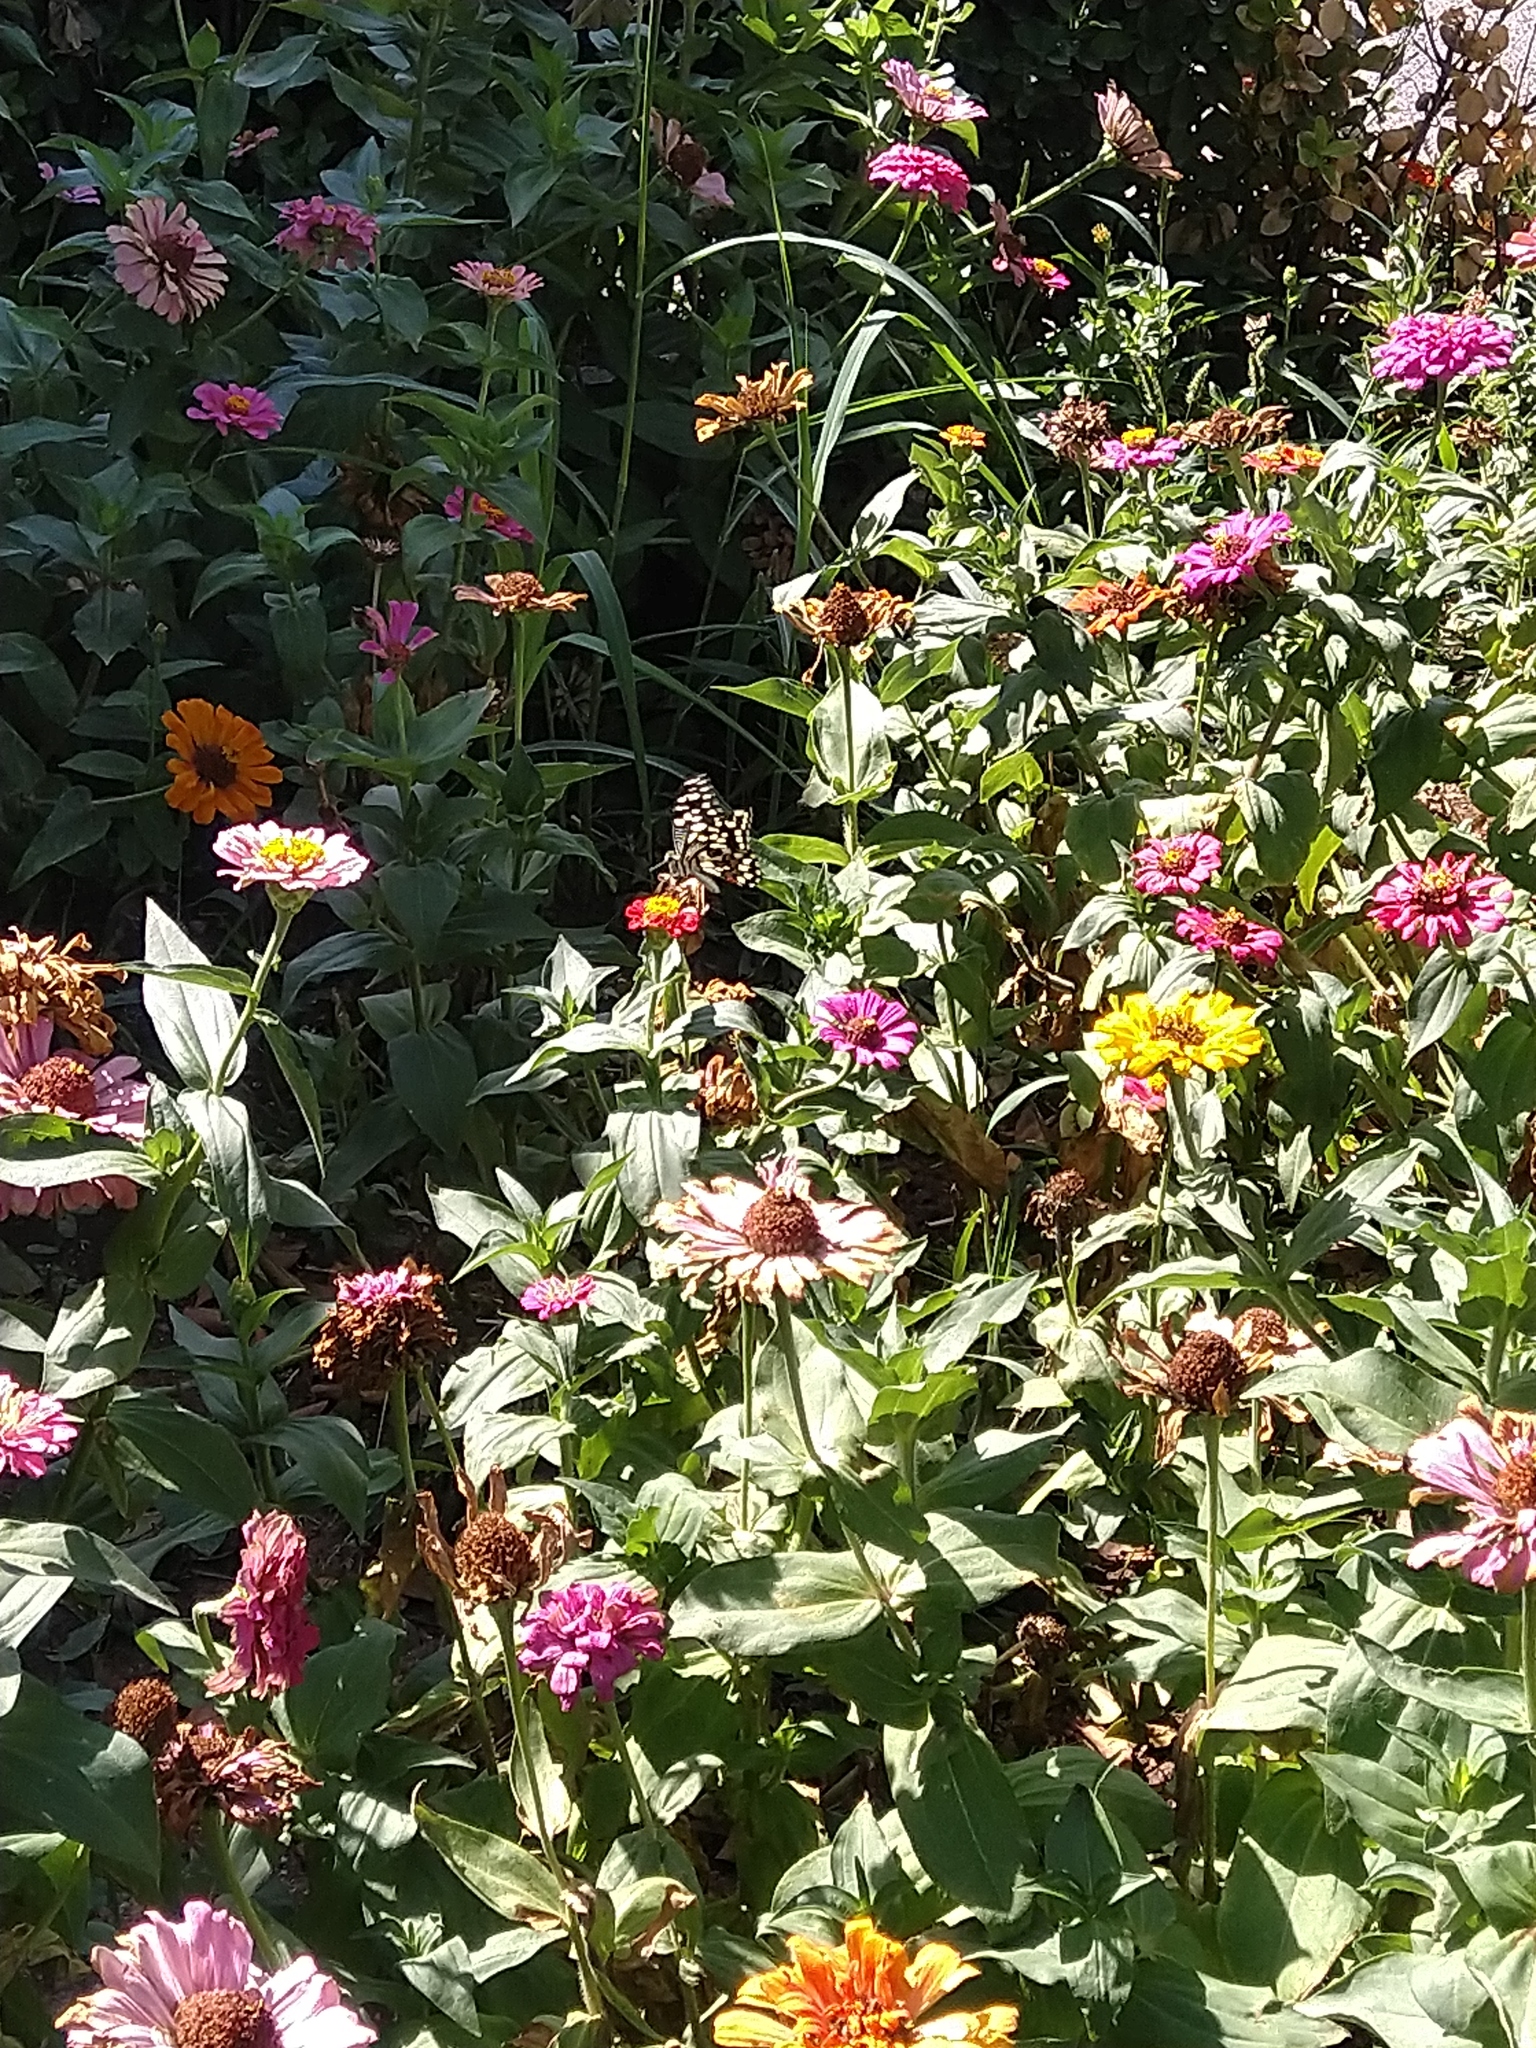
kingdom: Animalia
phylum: Arthropoda
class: Insecta
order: Lepidoptera
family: Papilionidae
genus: Papilio
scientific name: Papilio demoleus
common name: Lime butterfly
